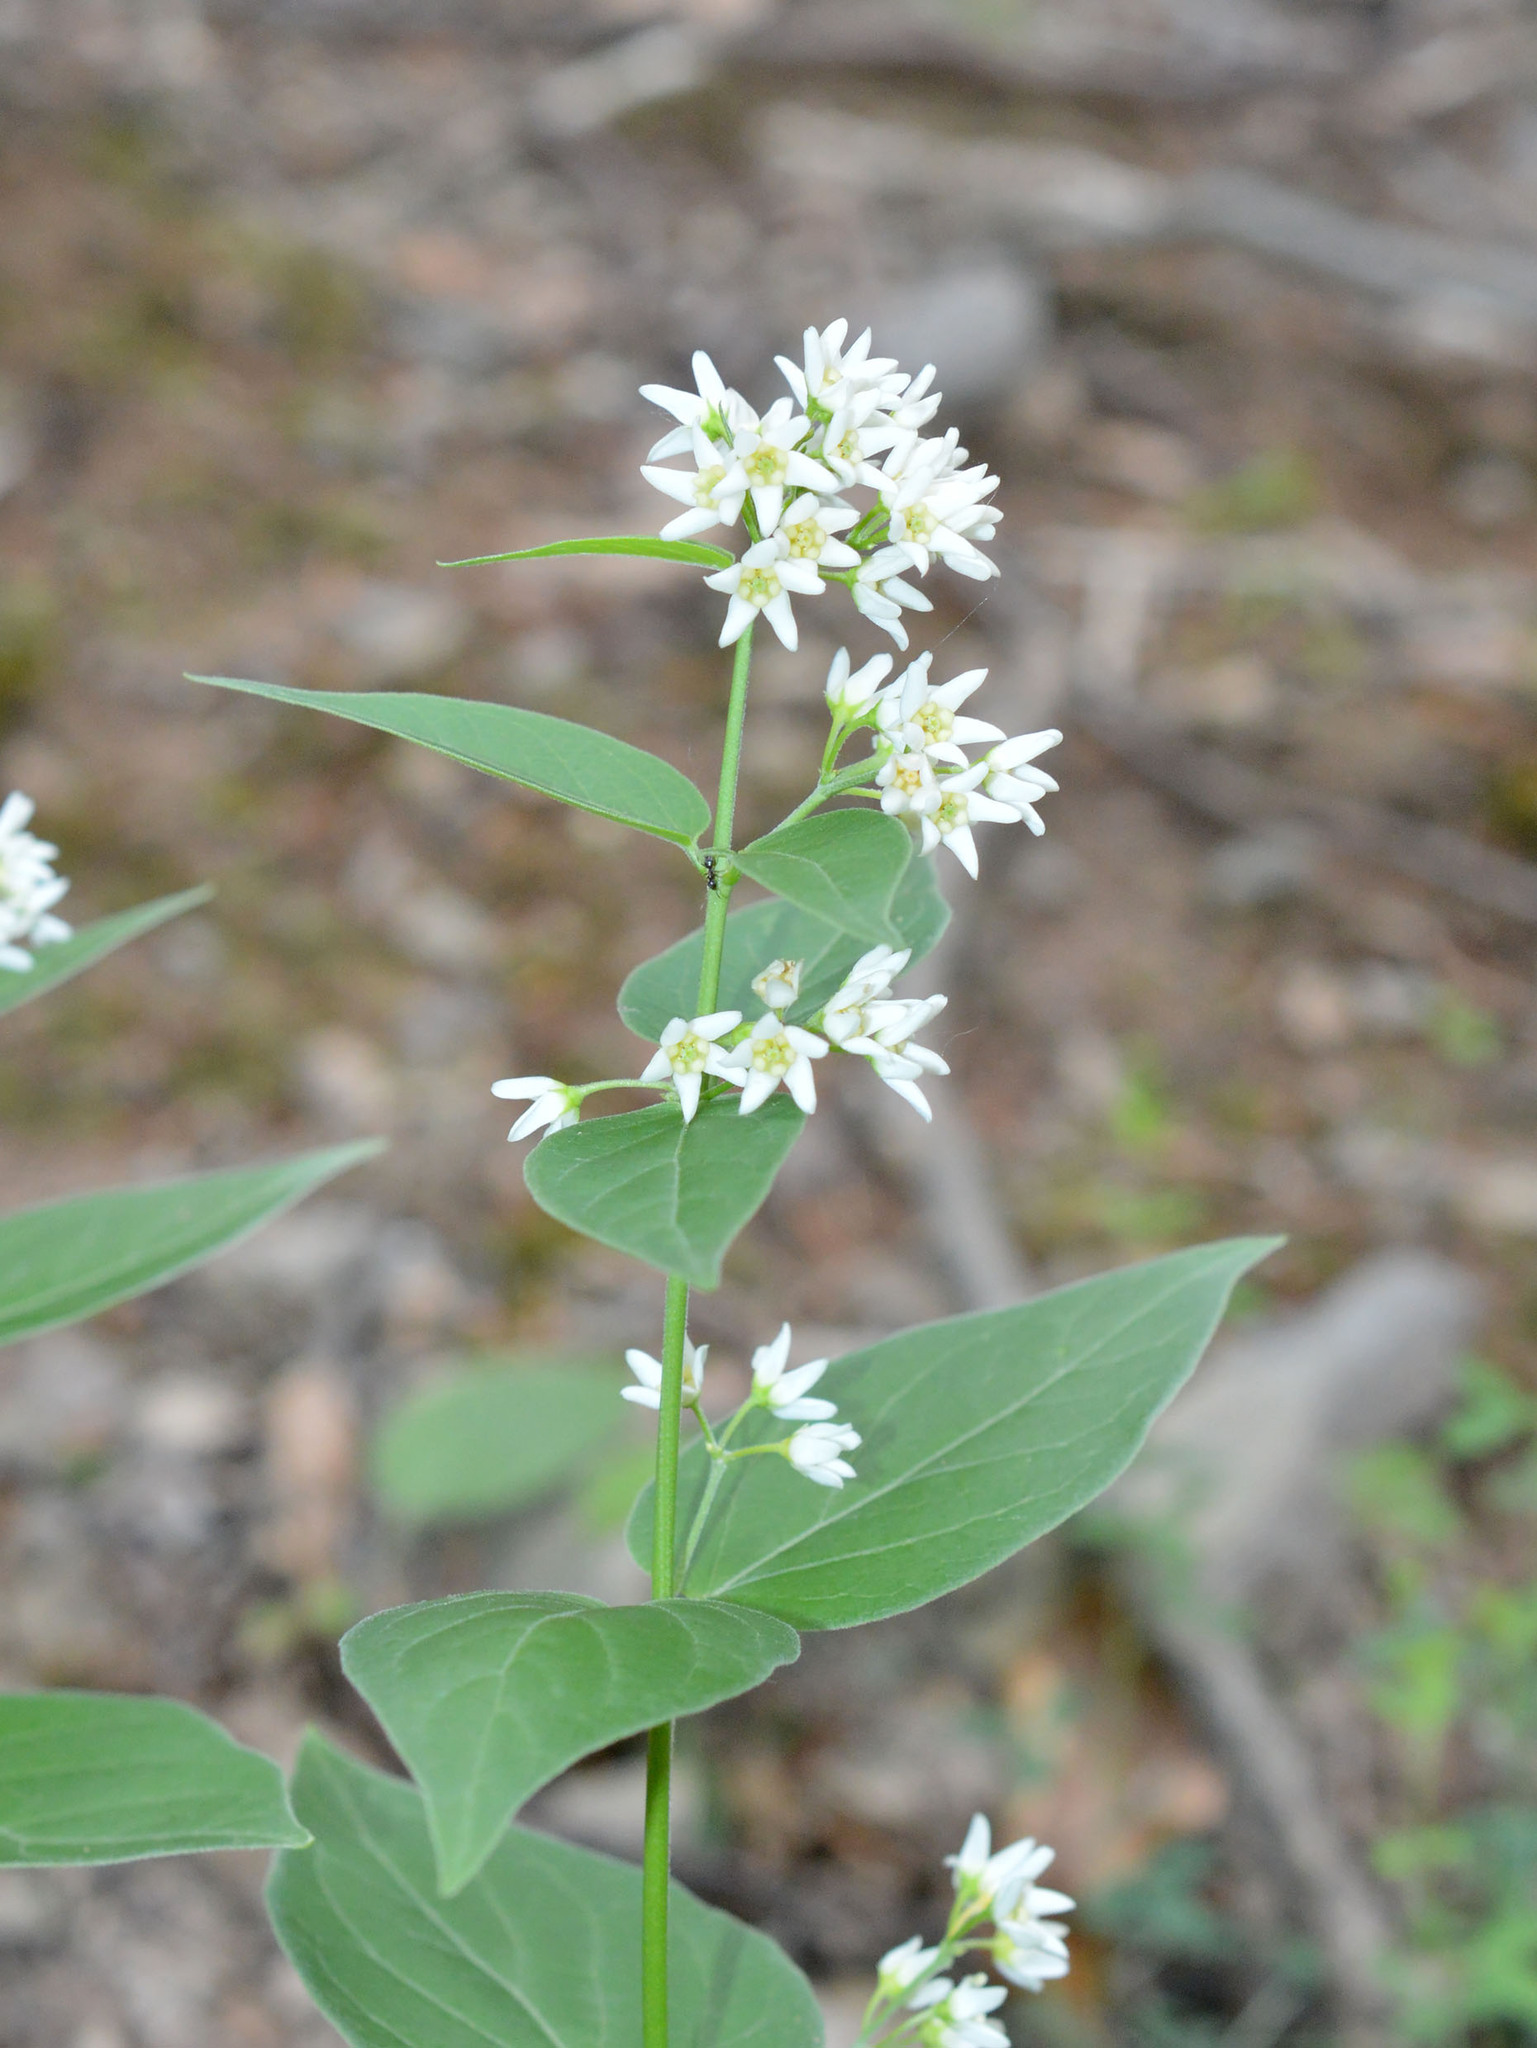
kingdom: Plantae
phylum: Tracheophyta
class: Magnoliopsida
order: Gentianales
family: Apocynaceae
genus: Vincetoxicum
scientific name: Vincetoxicum hirundinaria
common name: White swallowwort
